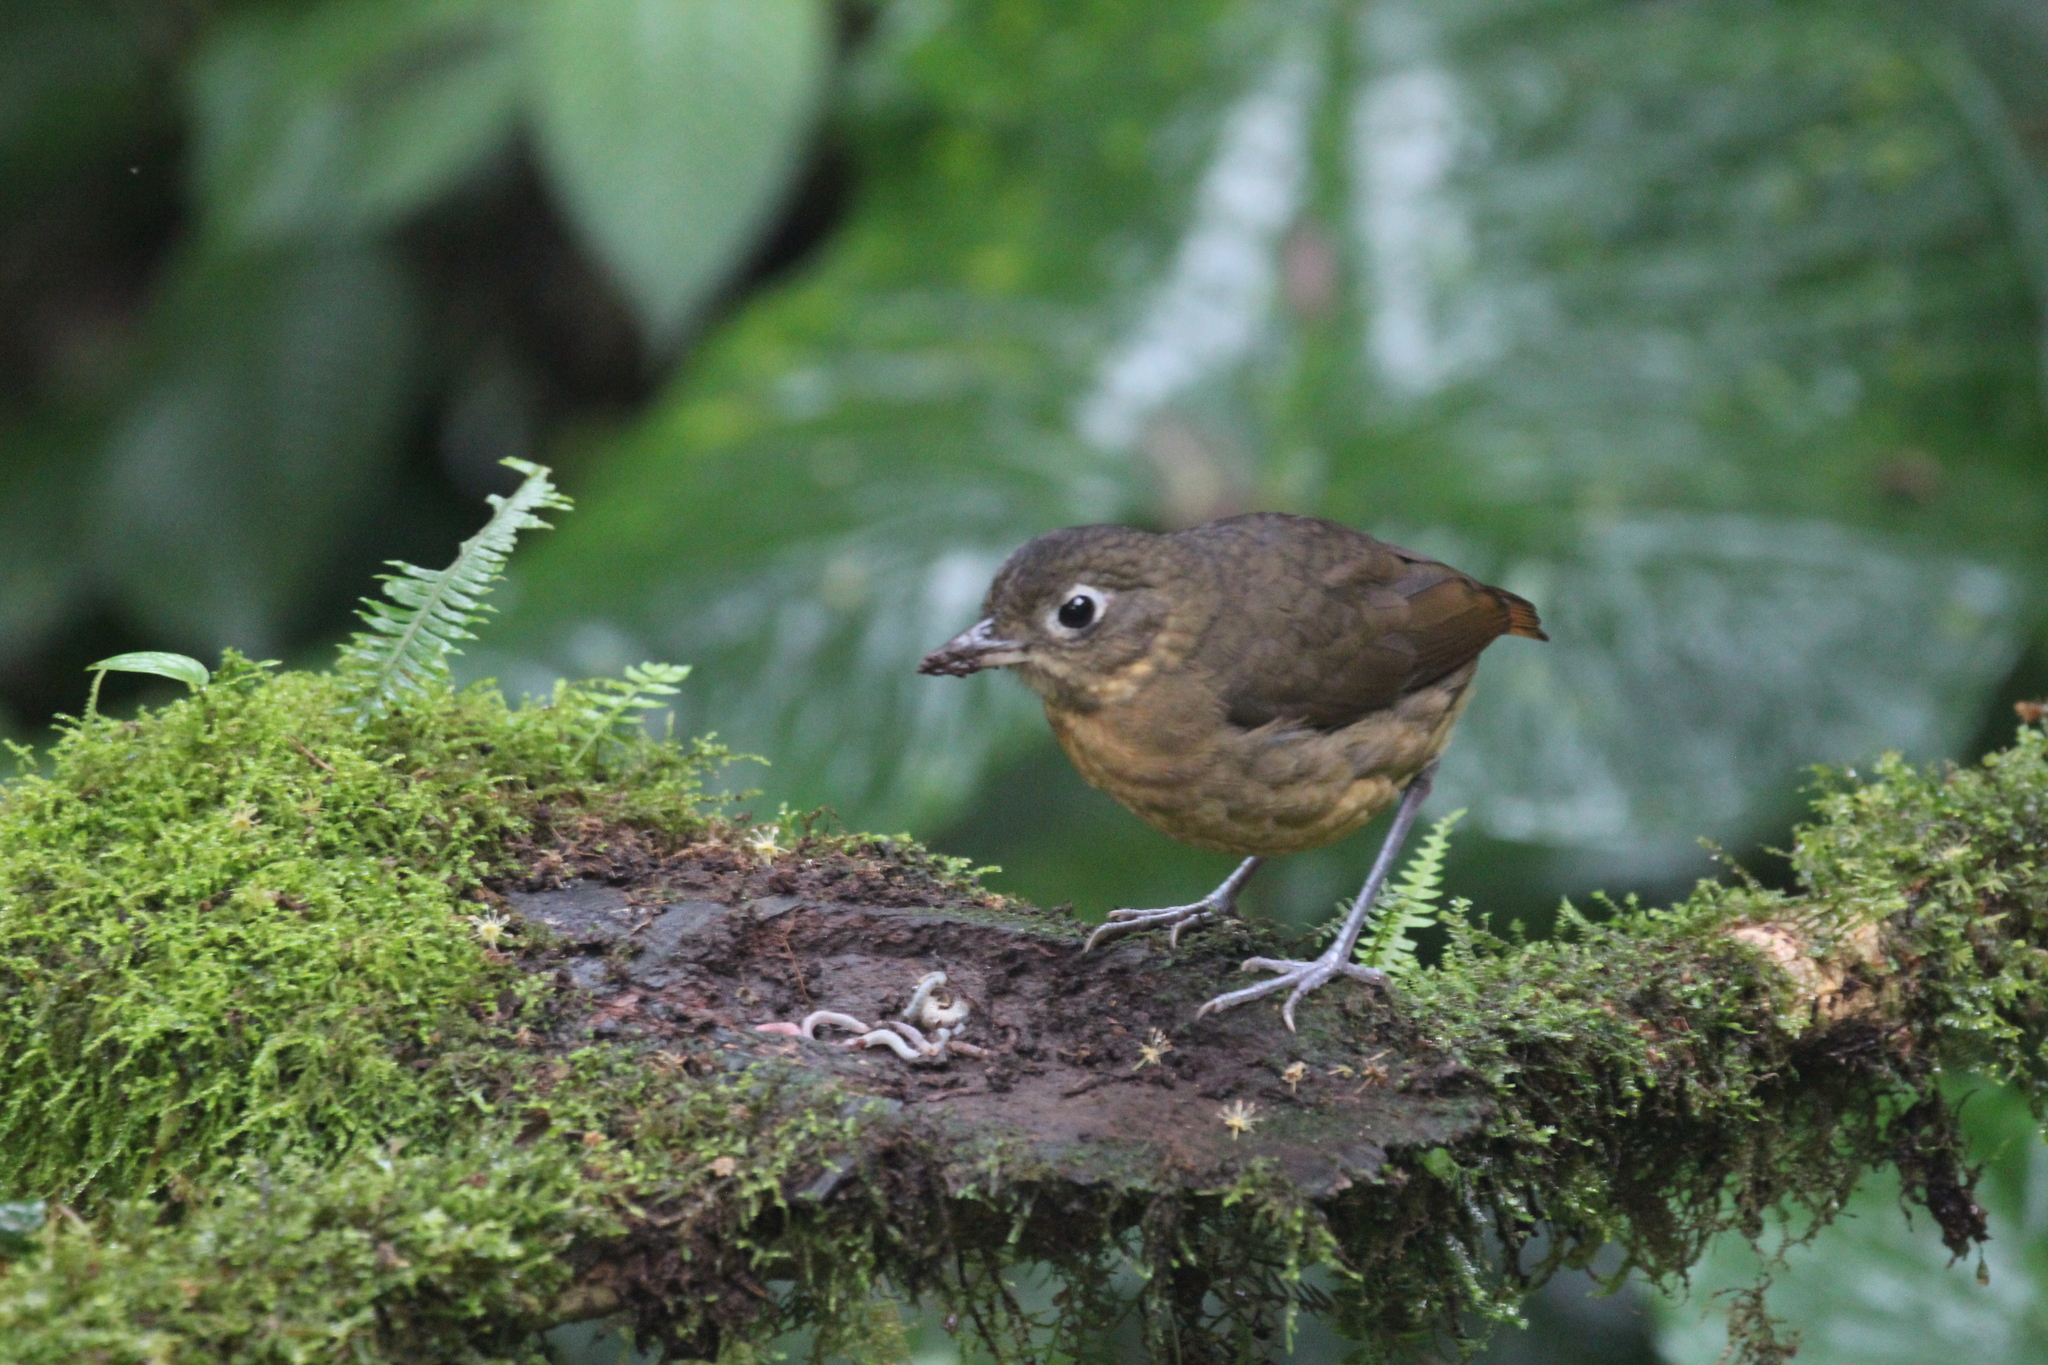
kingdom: Animalia
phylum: Chordata
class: Aves
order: Passeriformes
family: Grallariidae
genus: Grallaria
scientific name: Grallaria haplonota
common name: Plain-backed antpitta
